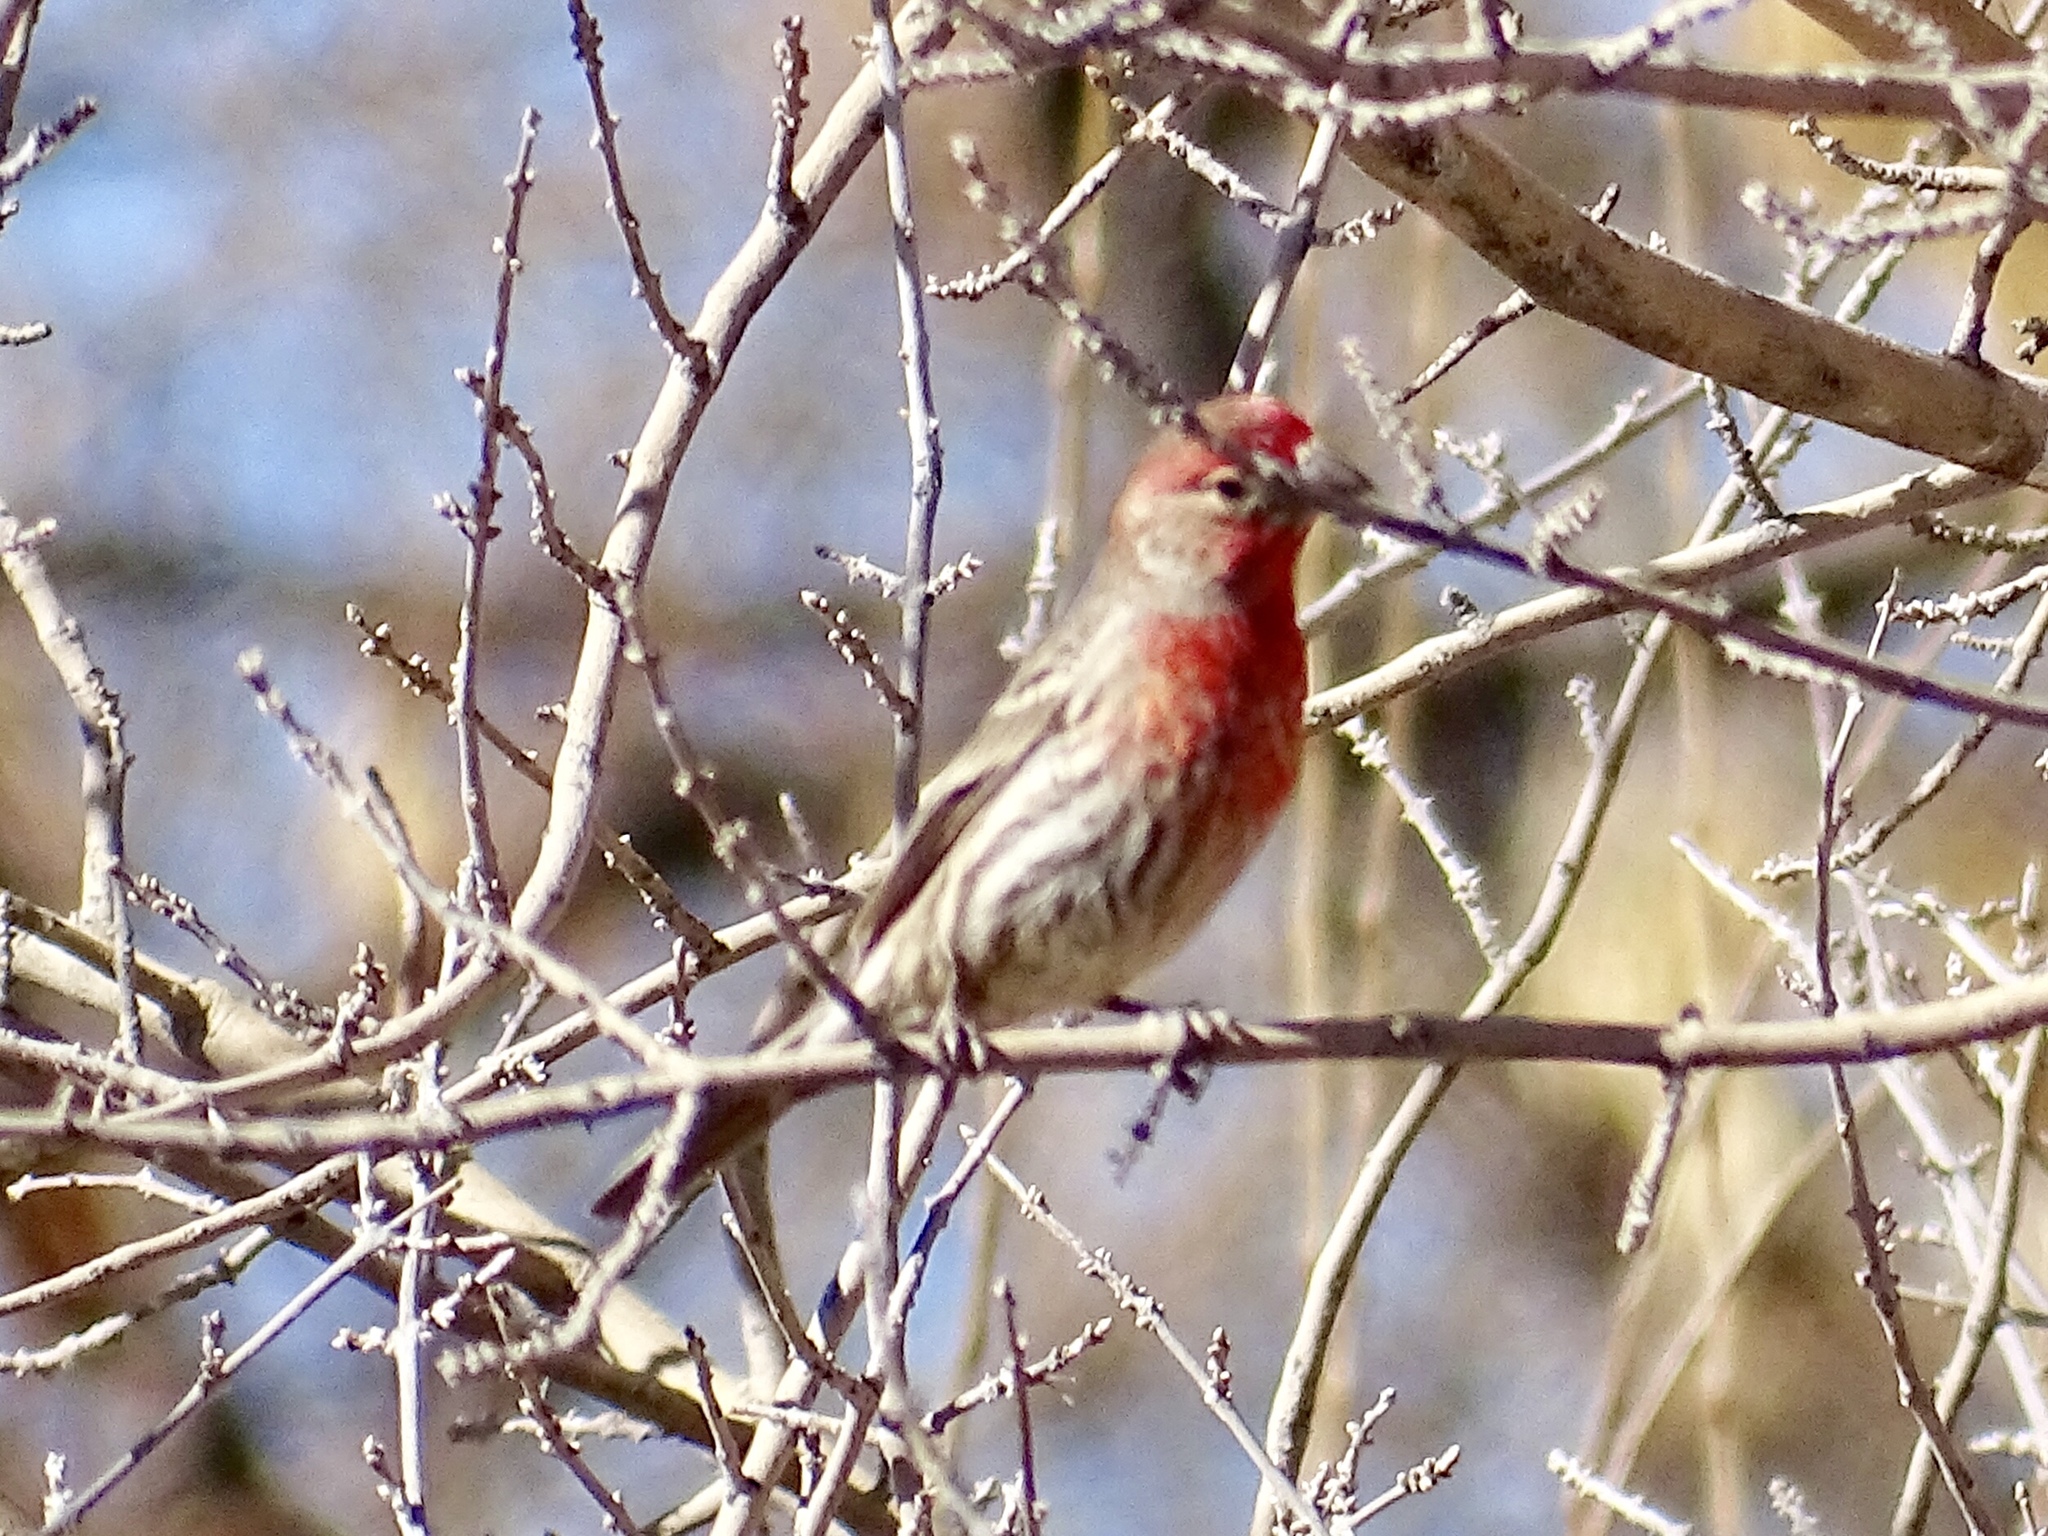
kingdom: Animalia
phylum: Chordata
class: Aves
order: Passeriformes
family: Fringillidae
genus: Haemorhous
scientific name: Haemorhous mexicanus
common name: House finch
